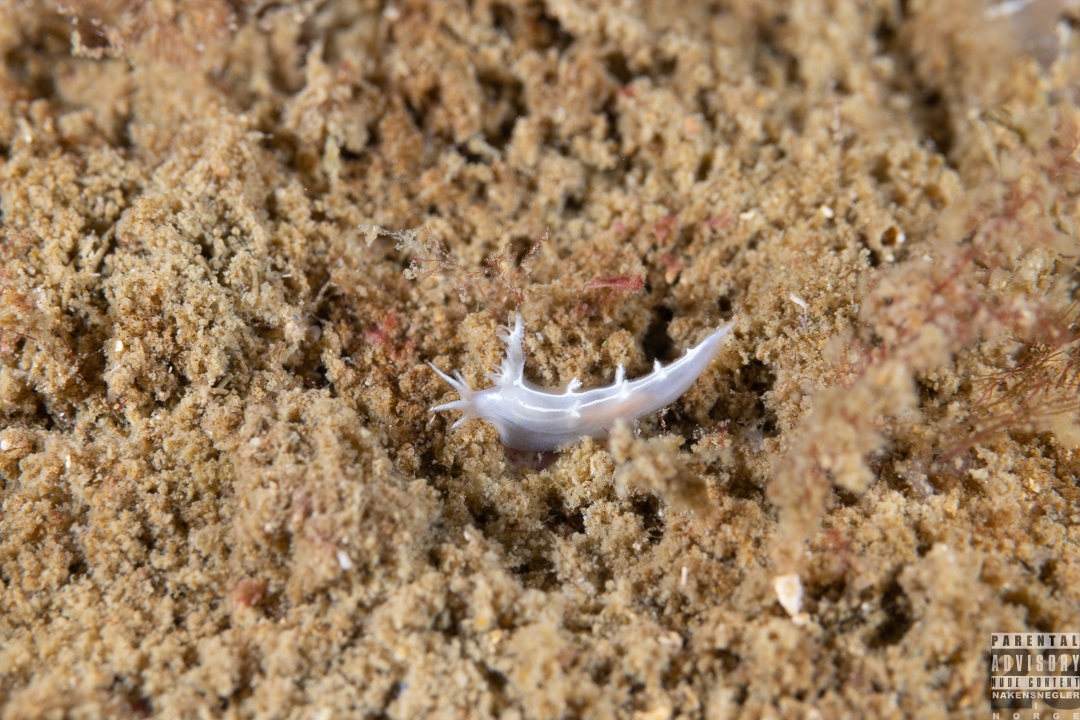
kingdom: Animalia
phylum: Mollusca
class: Gastropoda
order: Nudibranchia
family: Tritoniidae
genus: Duvaucelia
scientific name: Duvaucelia lineata
